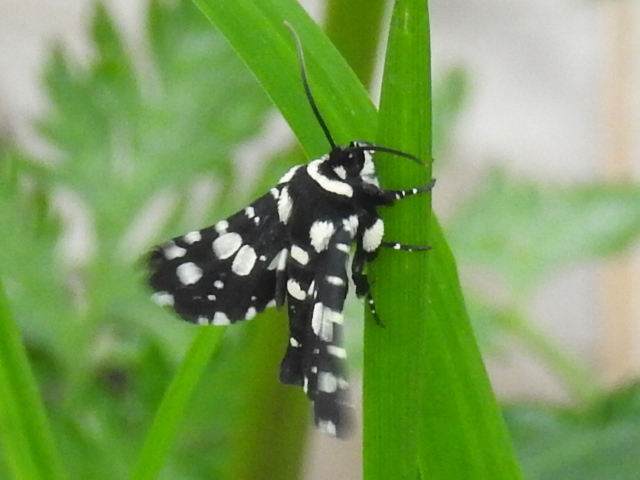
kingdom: Animalia
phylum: Arthropoda
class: Insecta
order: Lepidoptera
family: Thyrididae
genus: Pseudothyris
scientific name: Pseudothyris sepulchralis
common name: Mournful thyris moth
